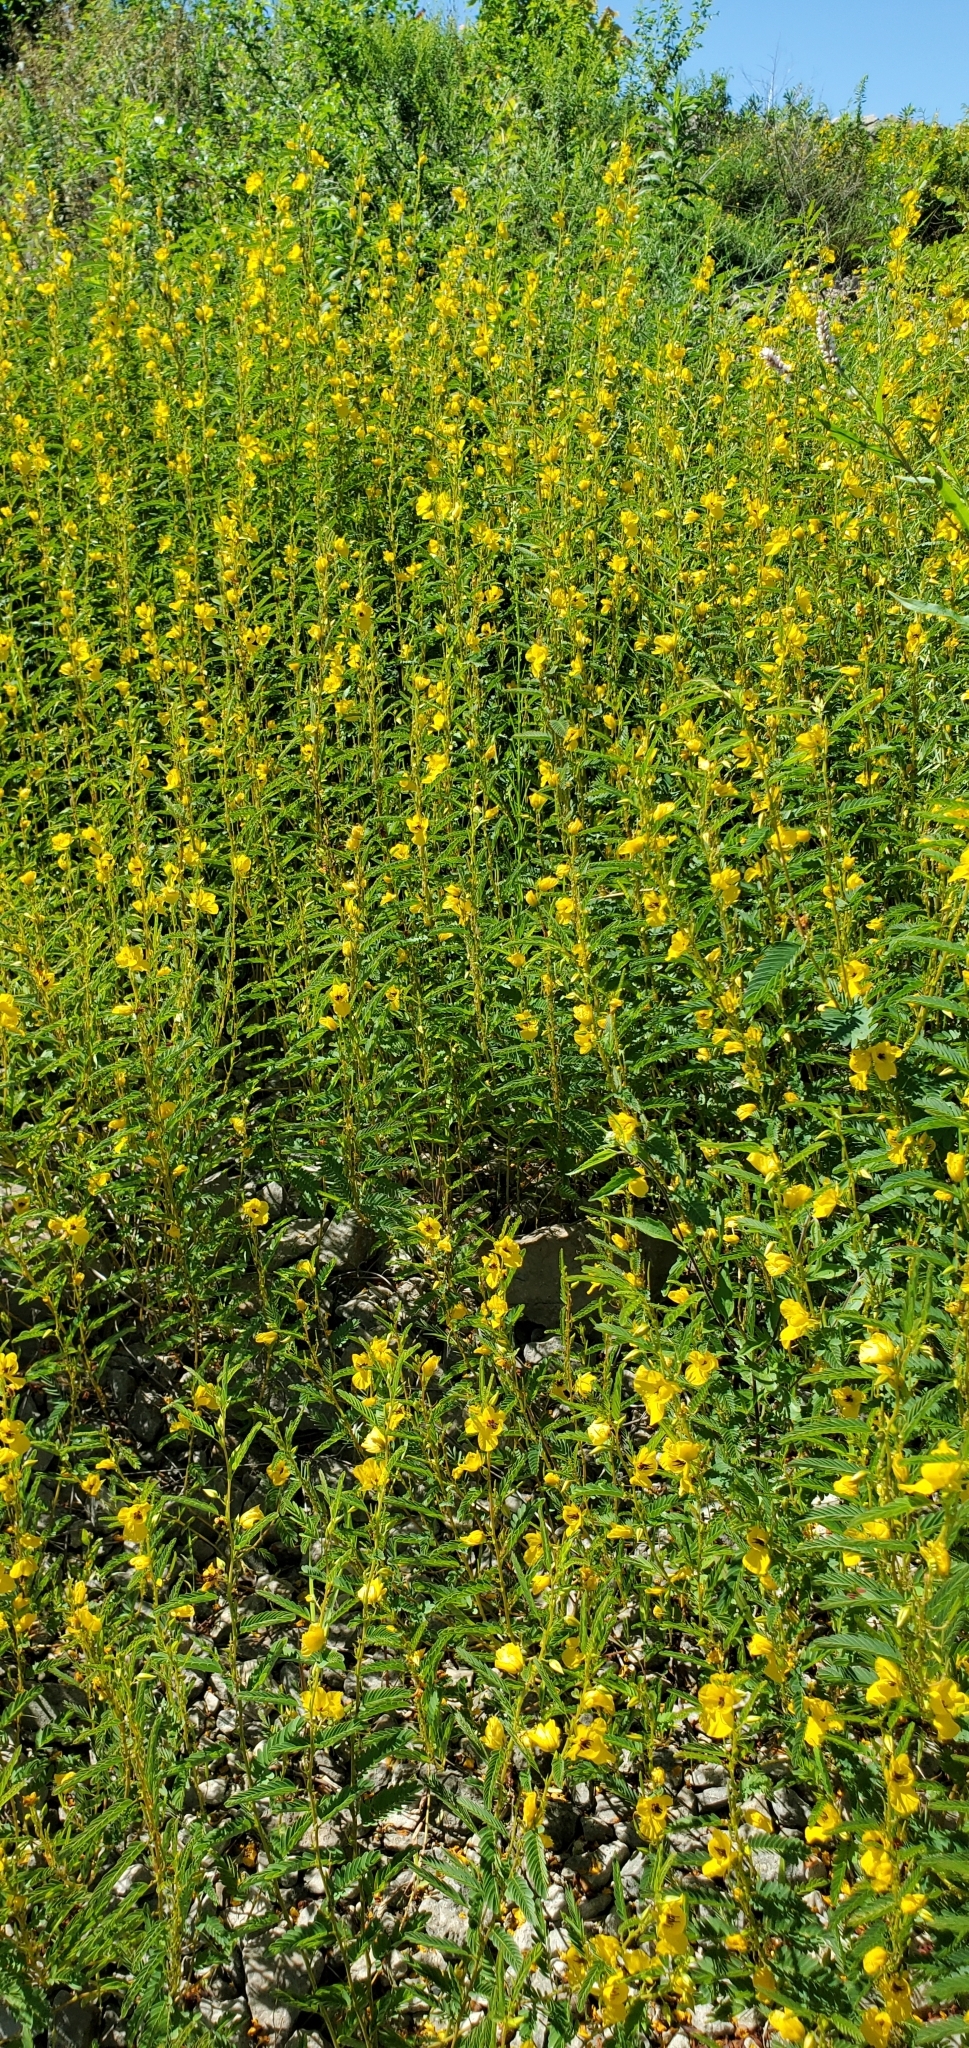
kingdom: Plantae
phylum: Tracheophyta
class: Magnoliopsida
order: Fabales
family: Fabaceae
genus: Chamaecrista
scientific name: Chamaecrista fasciculata
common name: Golden cassia
